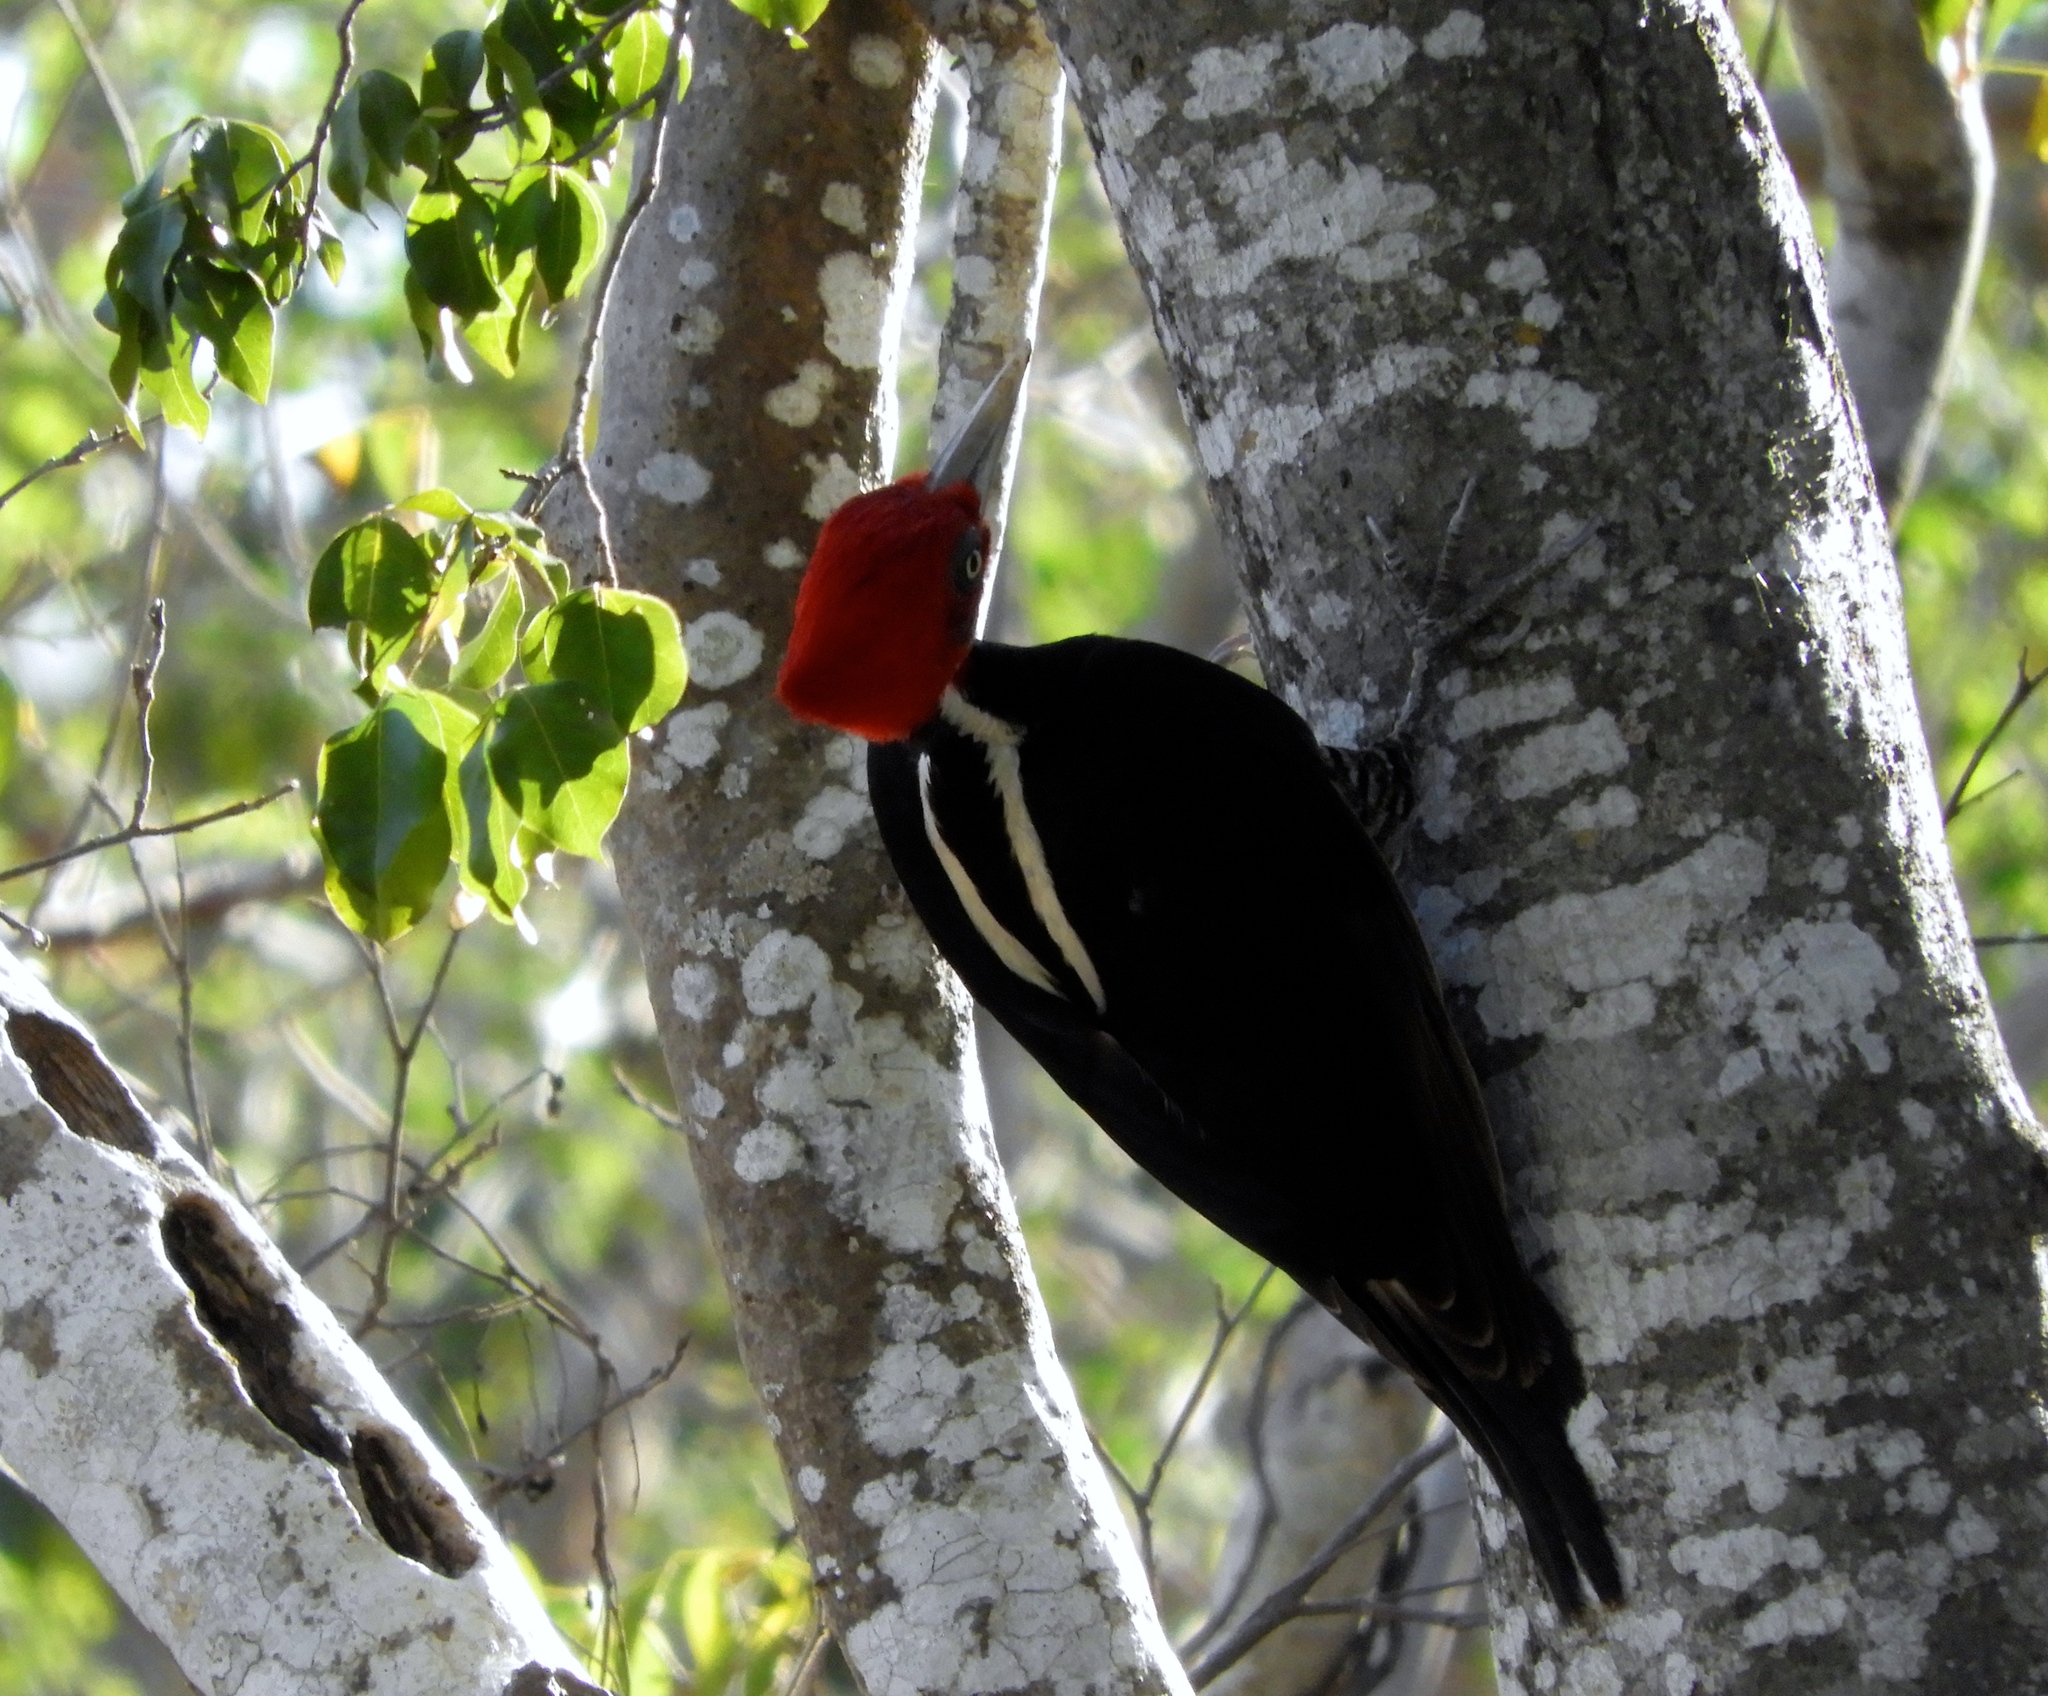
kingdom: Animalia
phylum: Chordata
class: Aves
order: Piciformes
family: Picidae
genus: Campephilus
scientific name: Campephilus guatemalensis
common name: Pale-billed woodpecker
